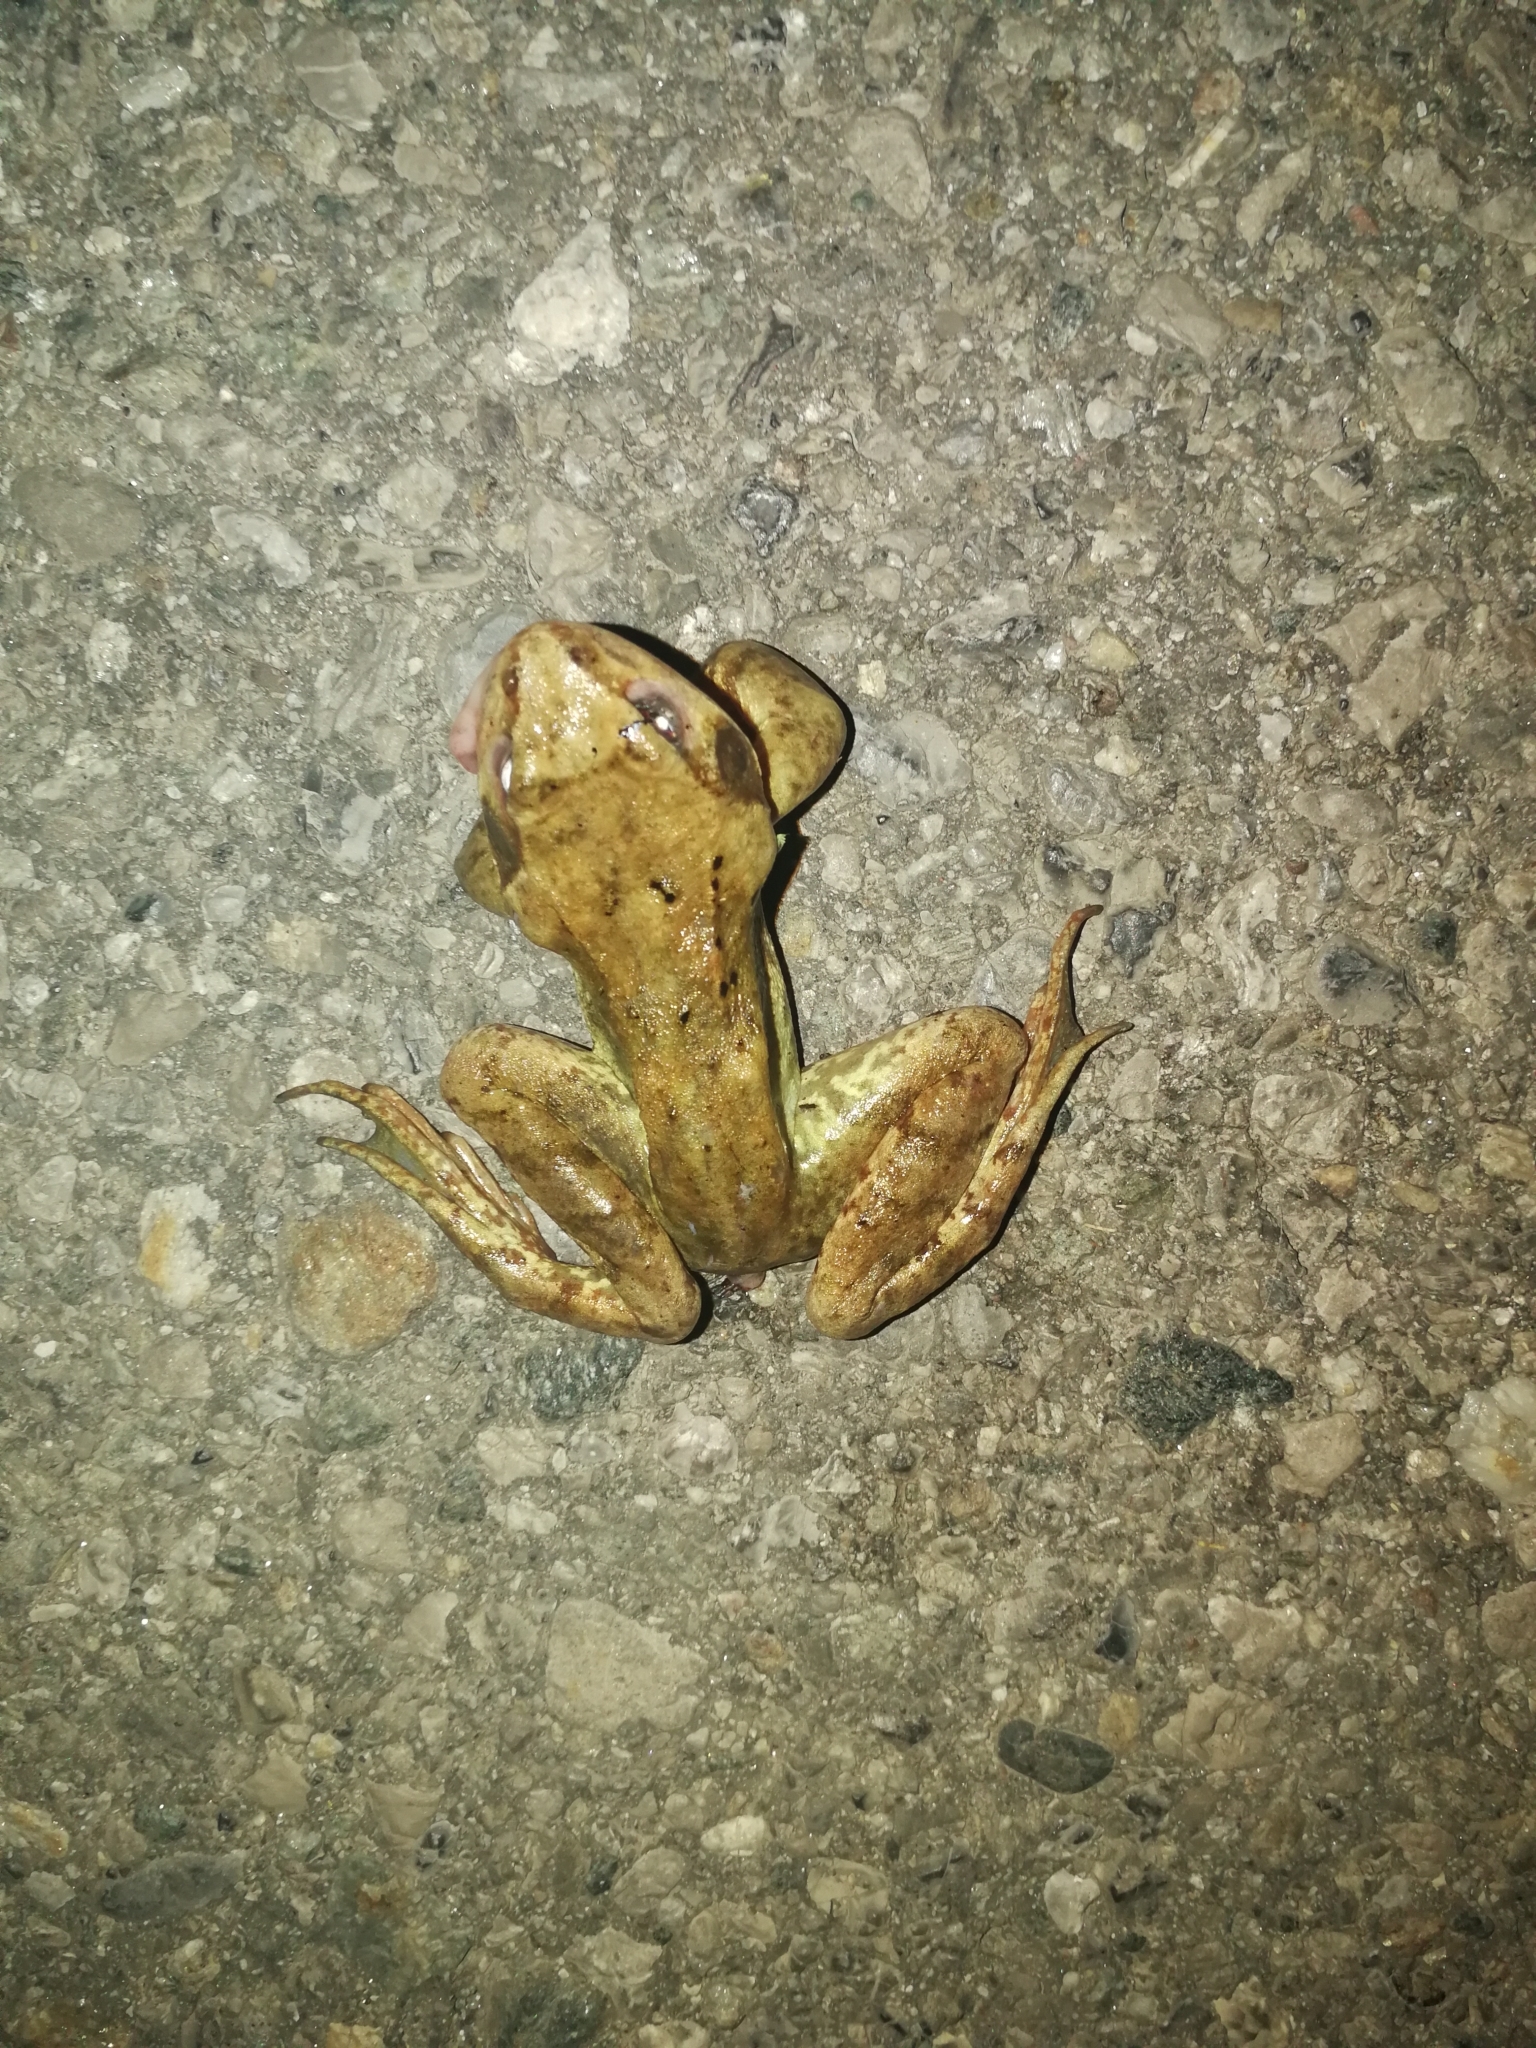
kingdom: Animalia
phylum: Chordata
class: Amphibia
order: Anura
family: Ranidae
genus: Rana
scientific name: Rana temporaria
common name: Common frog
